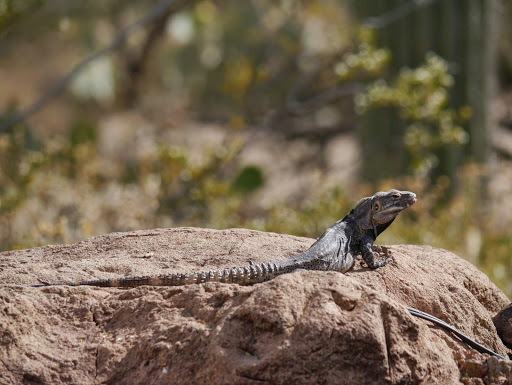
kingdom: Animalia
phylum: Chordata
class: Squamata
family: Iguanidae
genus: Ctenosaura
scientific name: Ctenosaura
